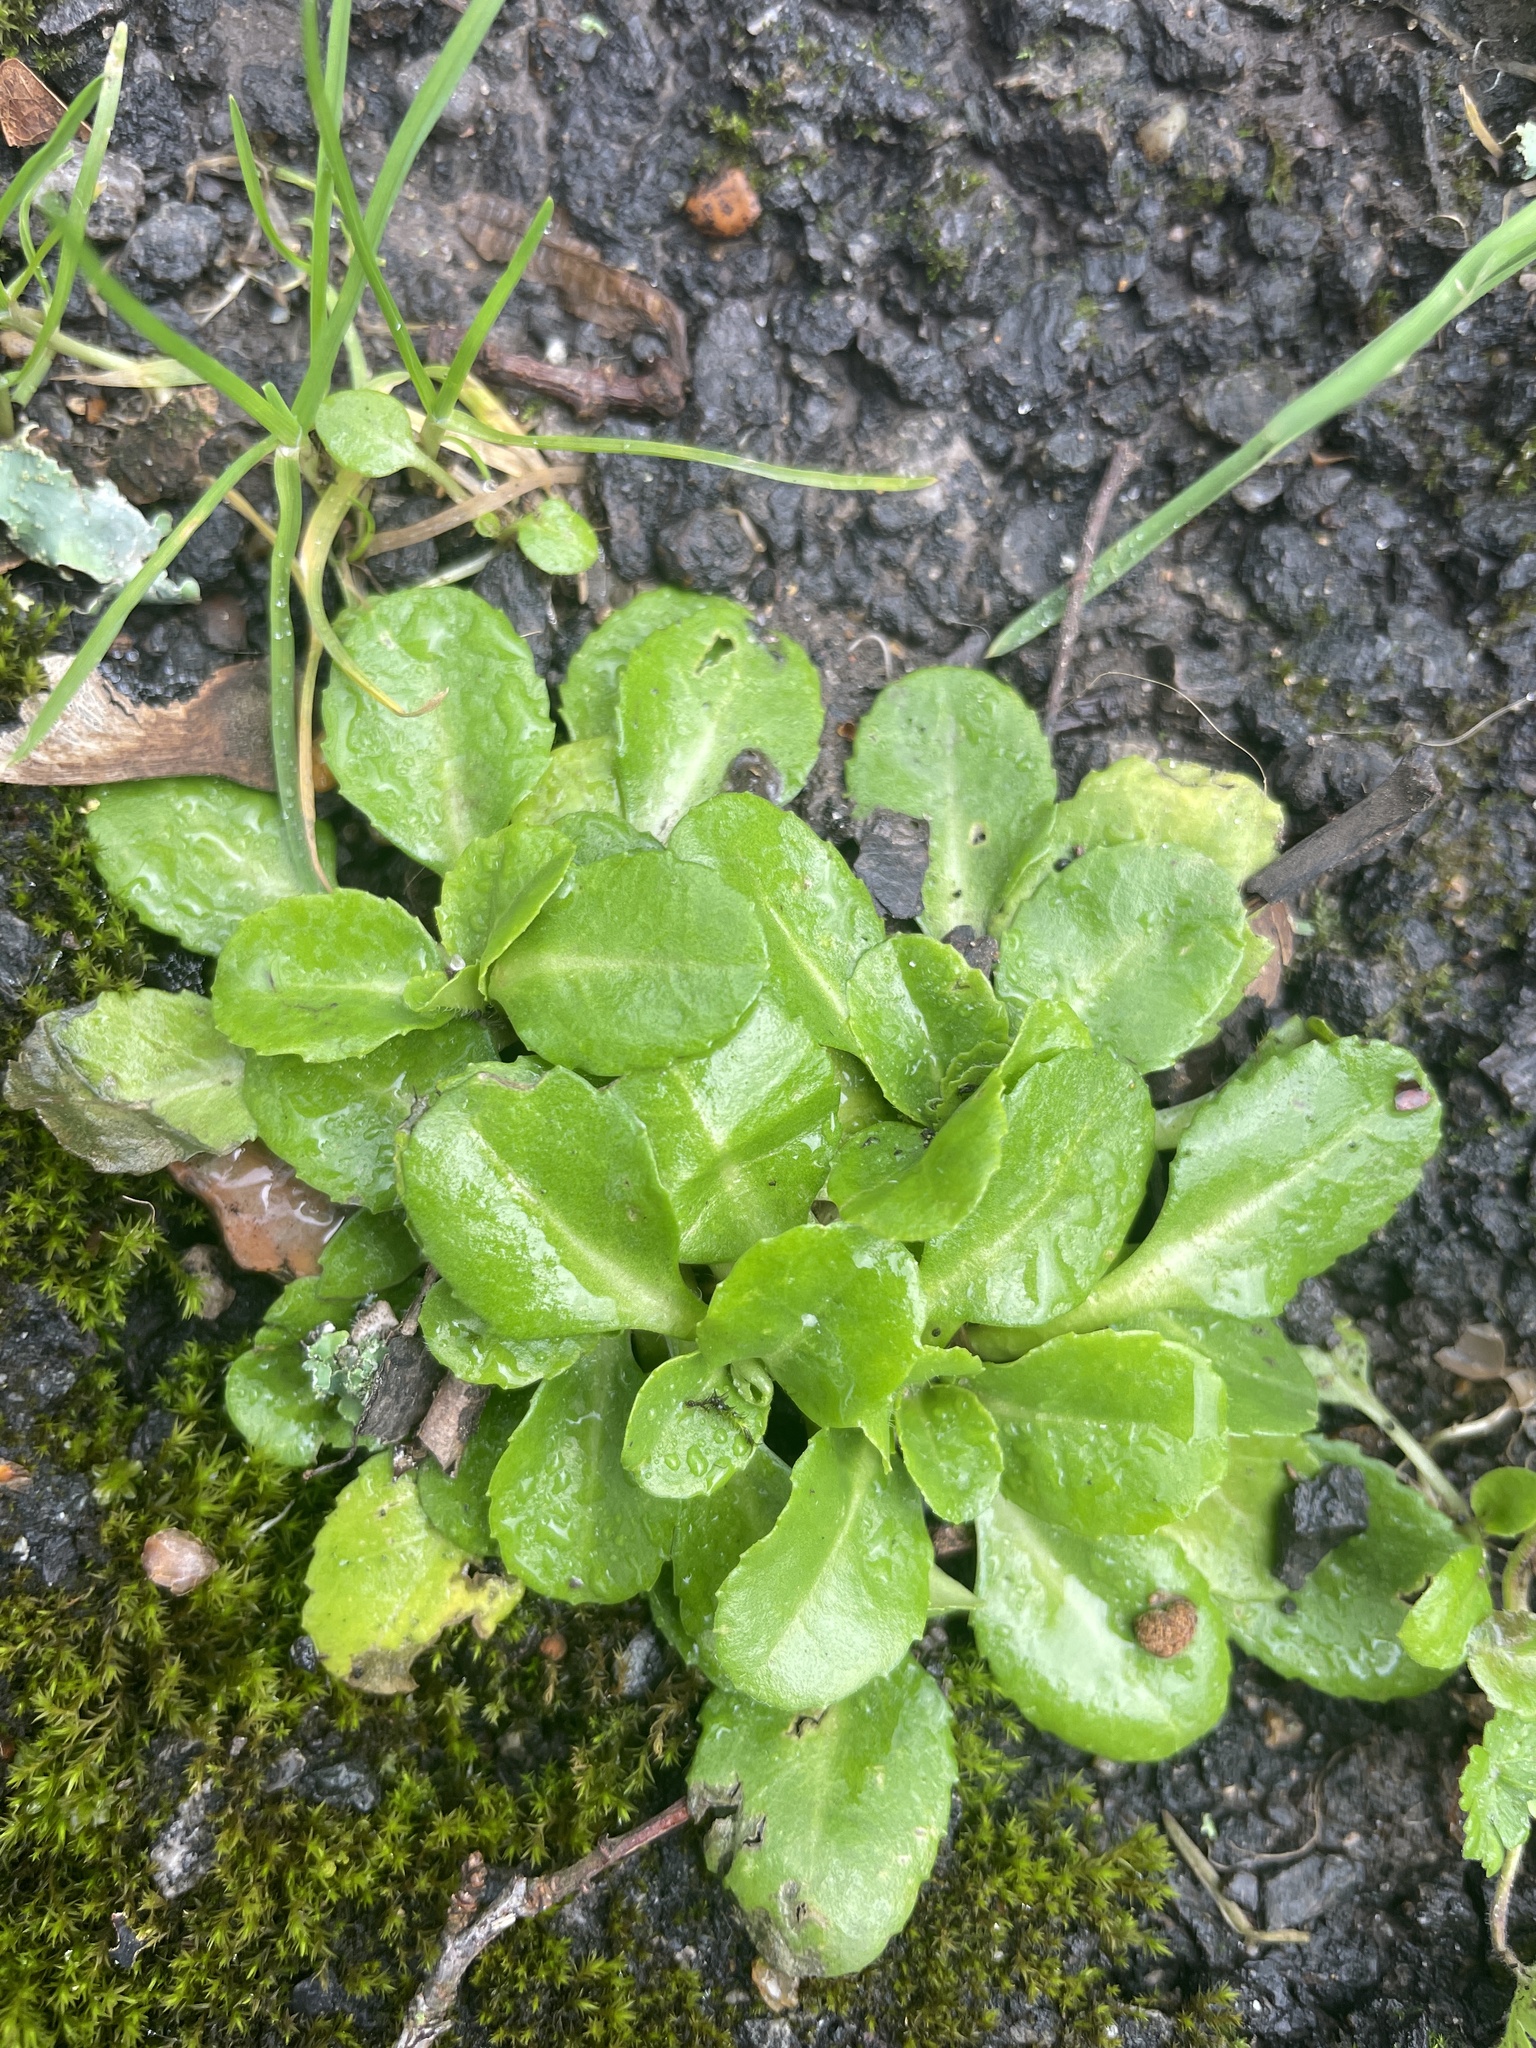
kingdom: Plantae
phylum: Tracheophyta
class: Magnoliopsida
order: Asterales
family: Asteraceae
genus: Bellis
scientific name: Bellis perennis
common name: Lawndaisy
